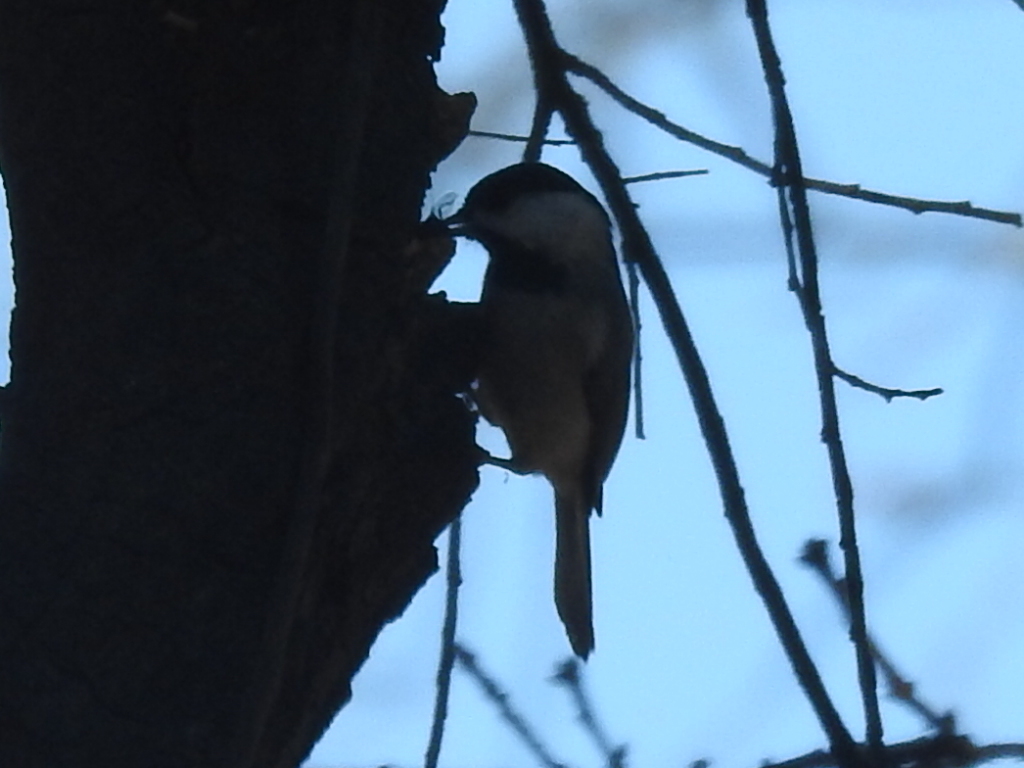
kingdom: Animalia
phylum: Chordata
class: Aves
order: Passeriformes
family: Paridae
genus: Poecile
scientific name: Poecile carolinensis
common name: Carolina chickadee
